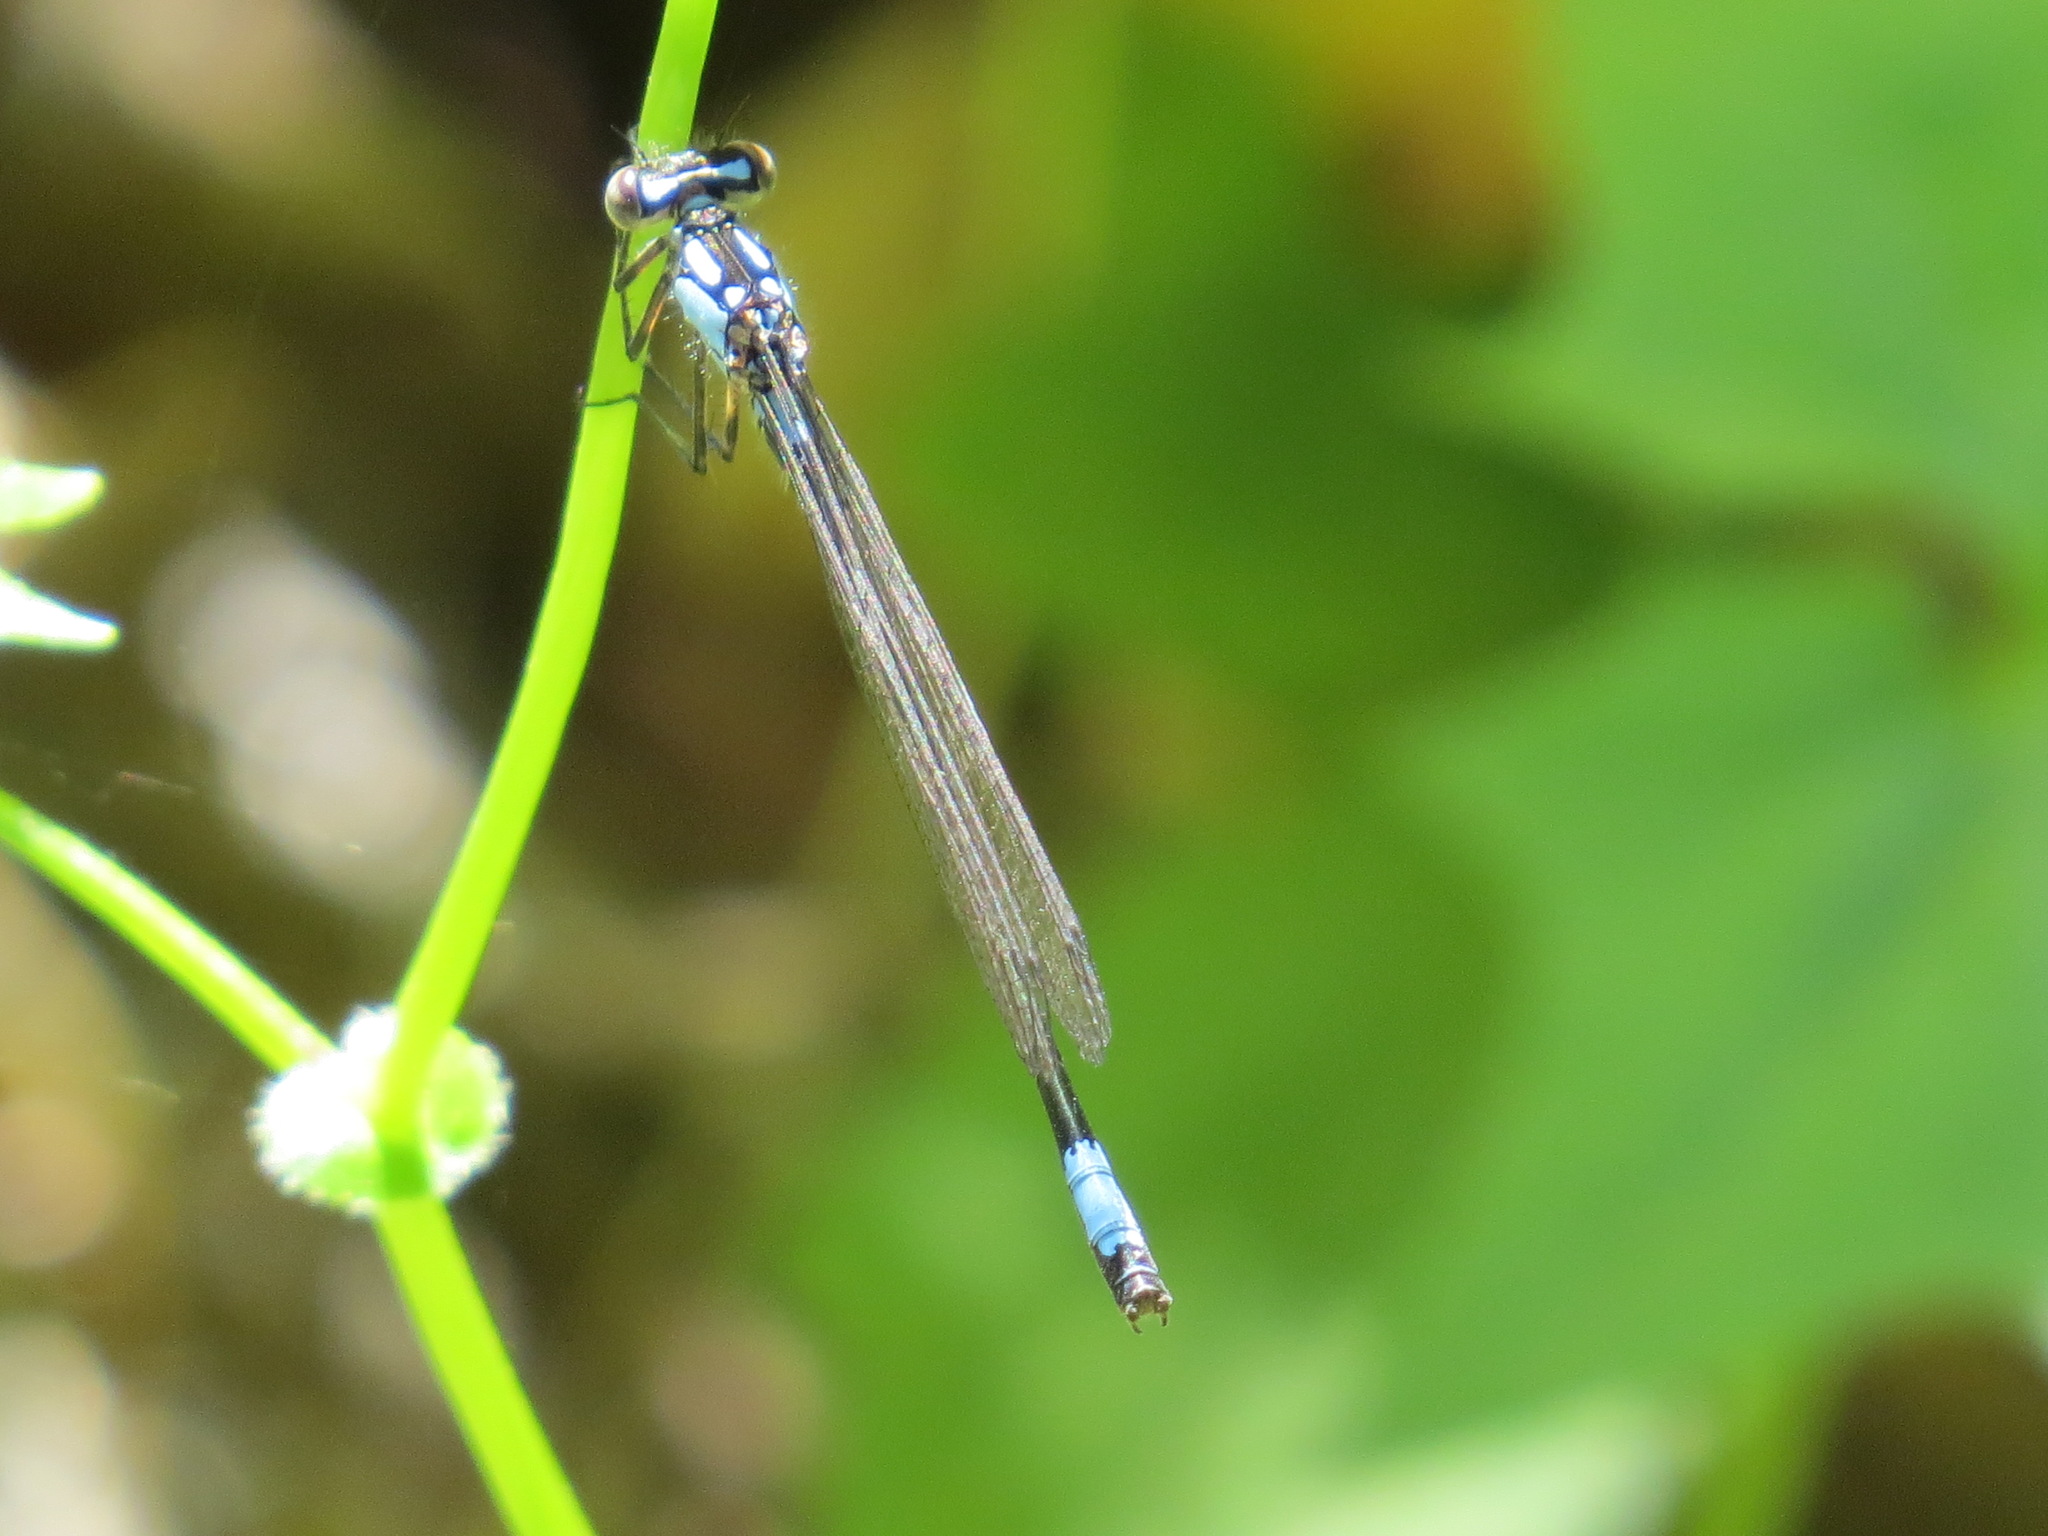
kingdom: Animalia
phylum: Arthropoda
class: Insecta
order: Odonata
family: Coenagrionidae
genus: Zoniagrion
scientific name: Zoniagrion exclamationis
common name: Exclamation damsel
